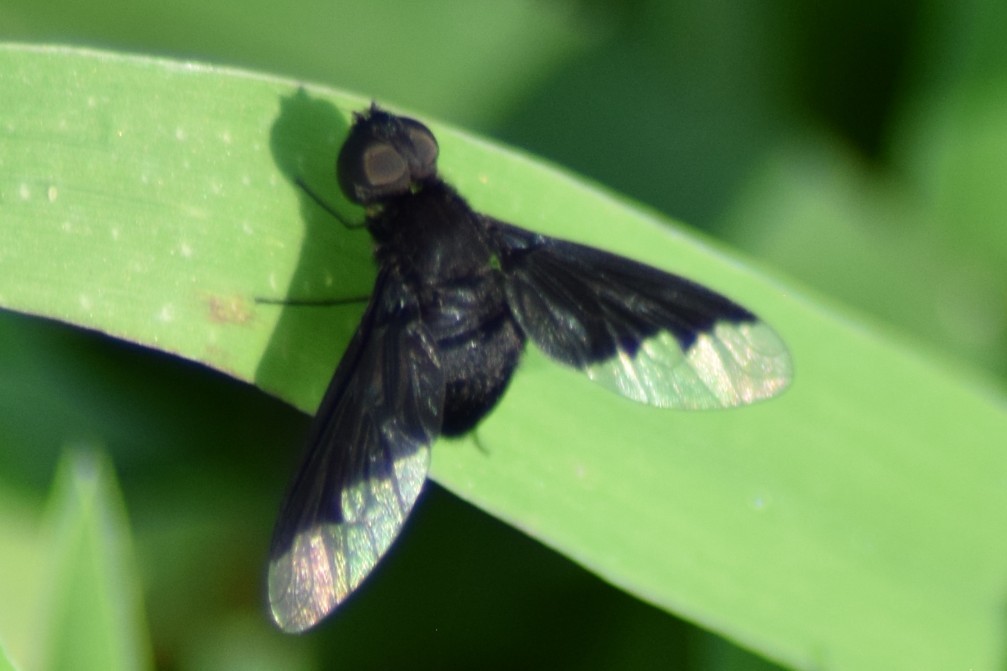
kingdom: Animalia
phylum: Arthropoda
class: Insecta
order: Diptera
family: Bombyliidae
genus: Anthrax
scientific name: Anthrax analis
